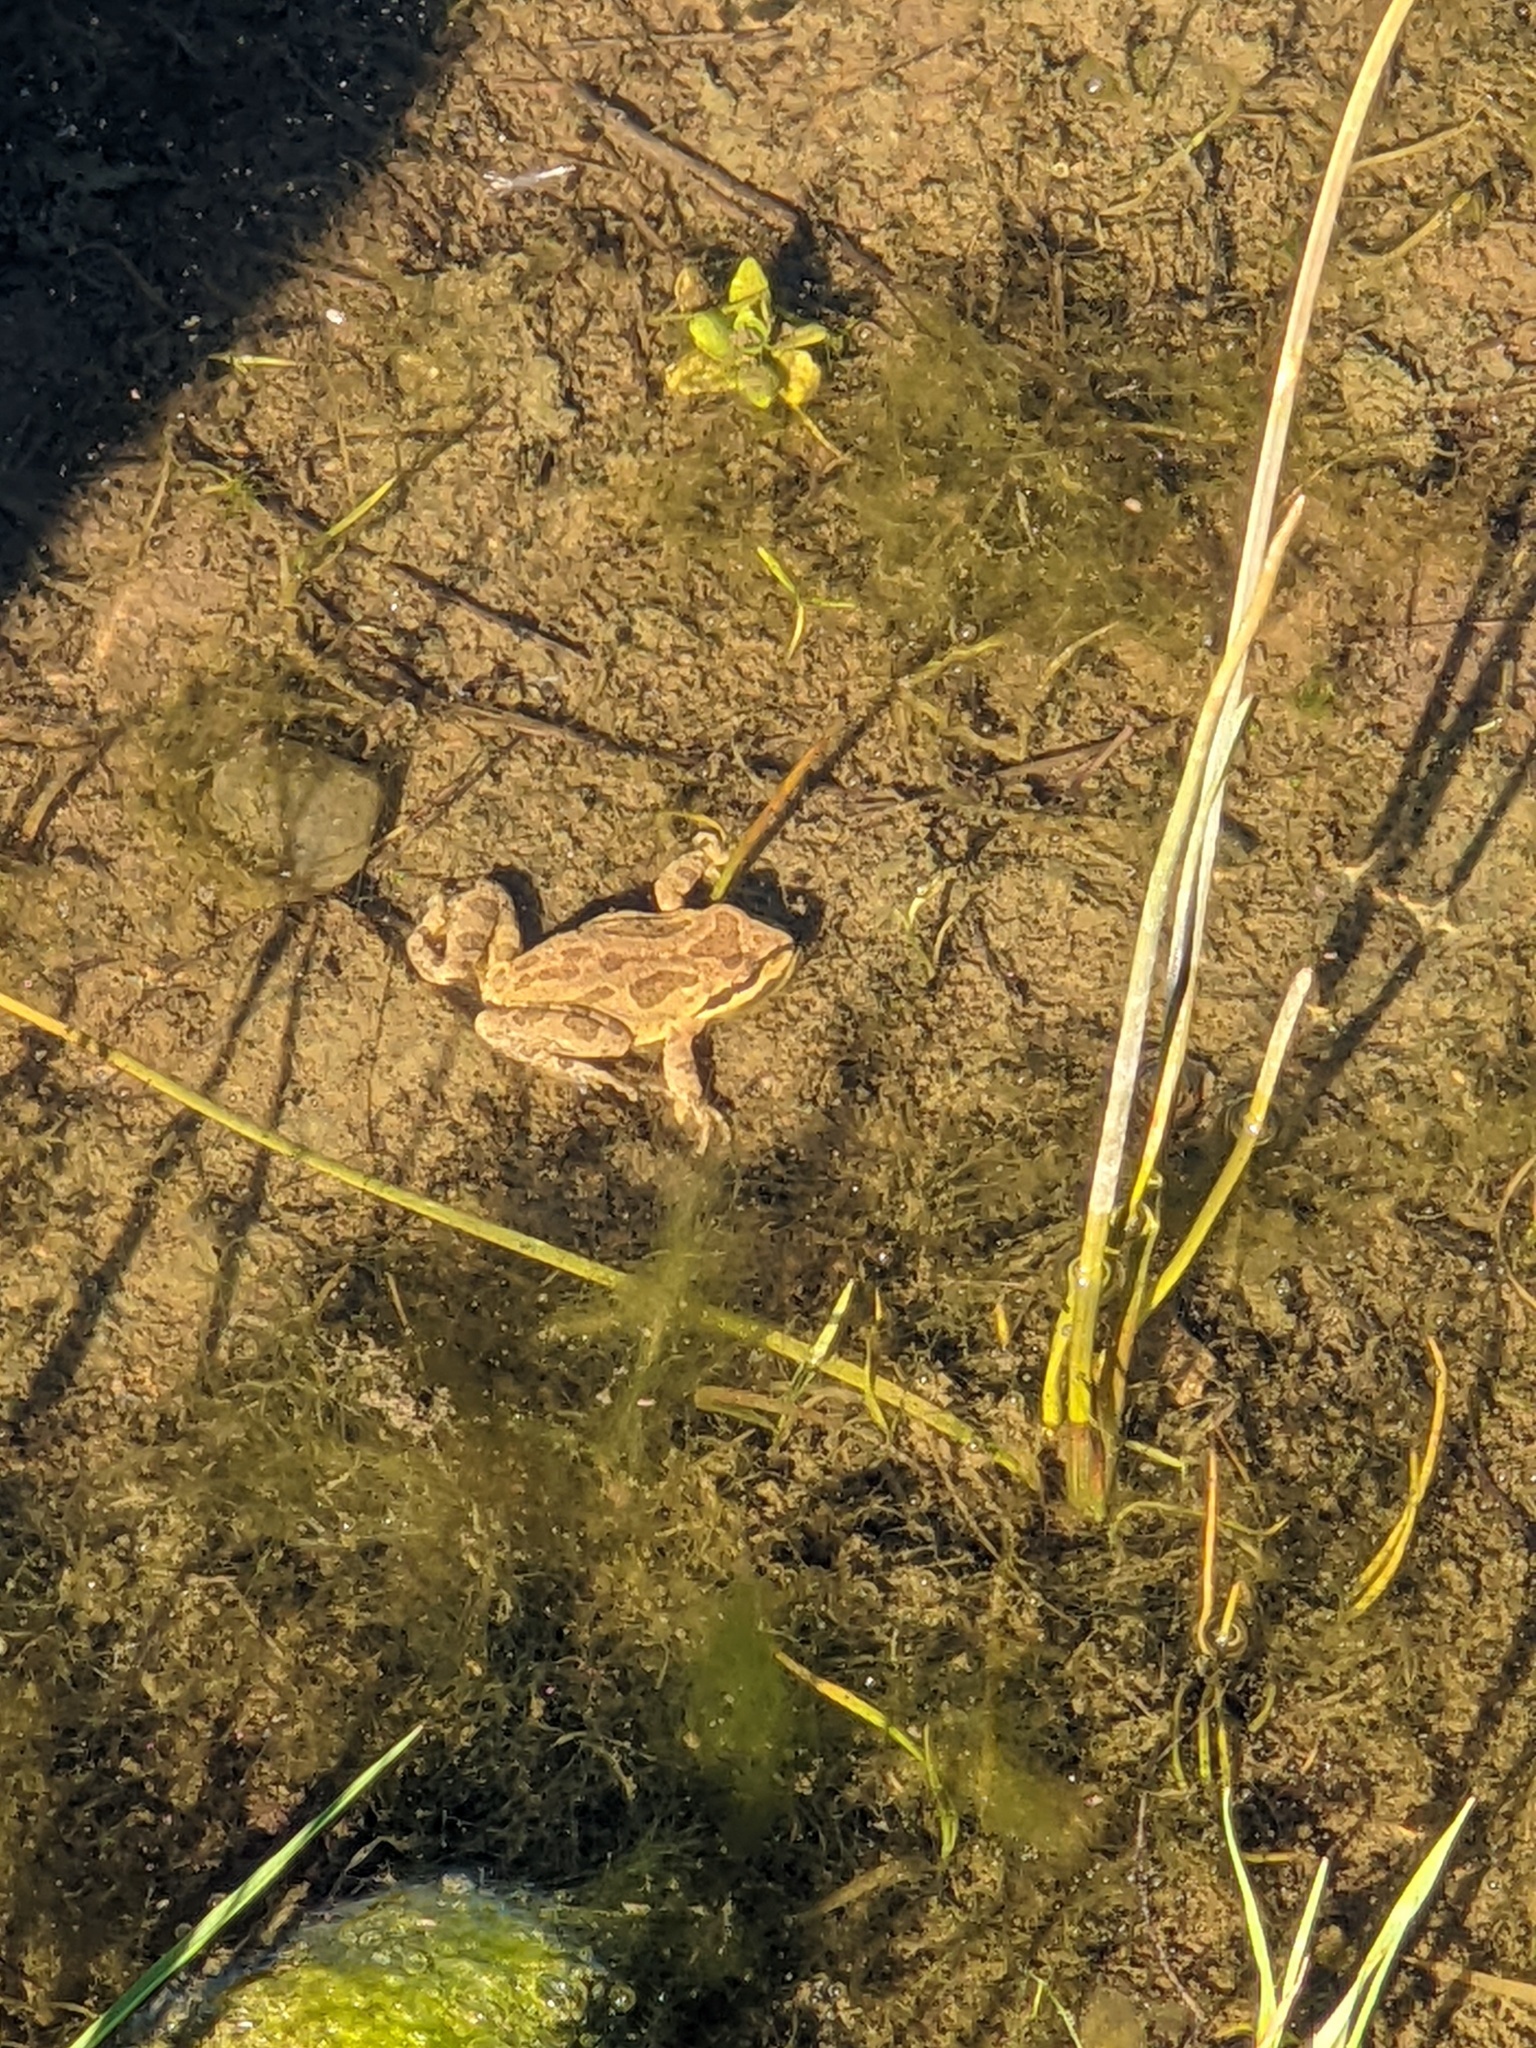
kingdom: Animalia
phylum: Chordata
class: Amphibia
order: Anura
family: Hylidae
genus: Pseudacris
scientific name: Pseudacris regilla
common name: Pacific chorus frog
